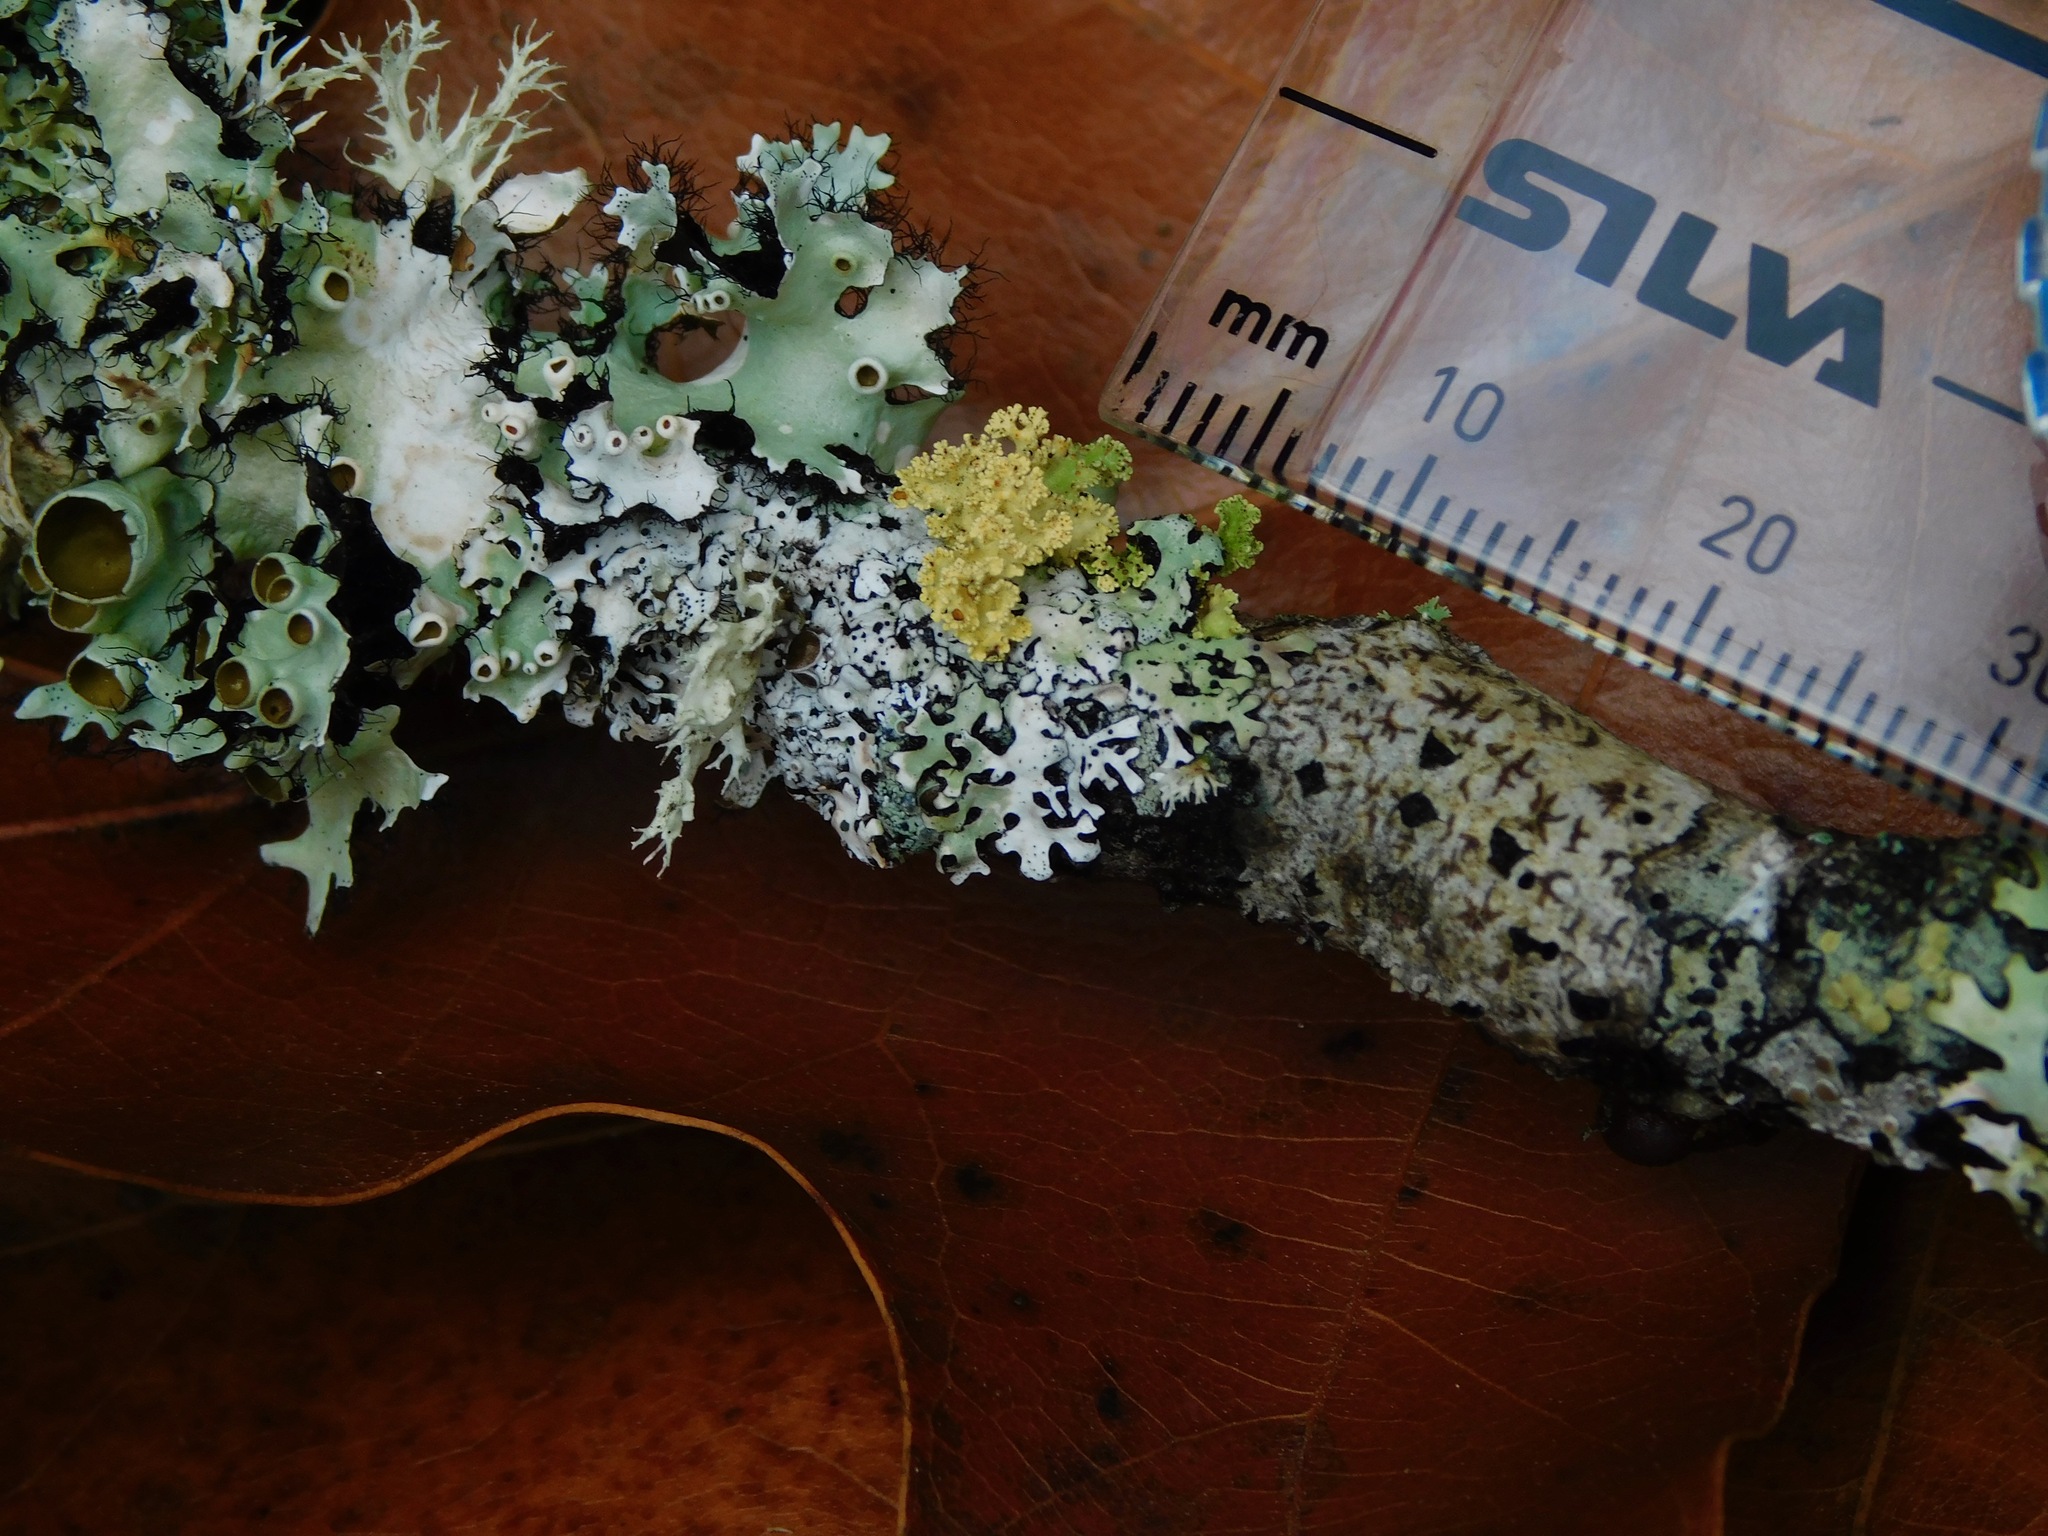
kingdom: Fungi
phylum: Ascomycota
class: Arthoniomycetes
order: Arthoniales
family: Arthoniaceae
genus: Arthonia
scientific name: Arthonia anglica
